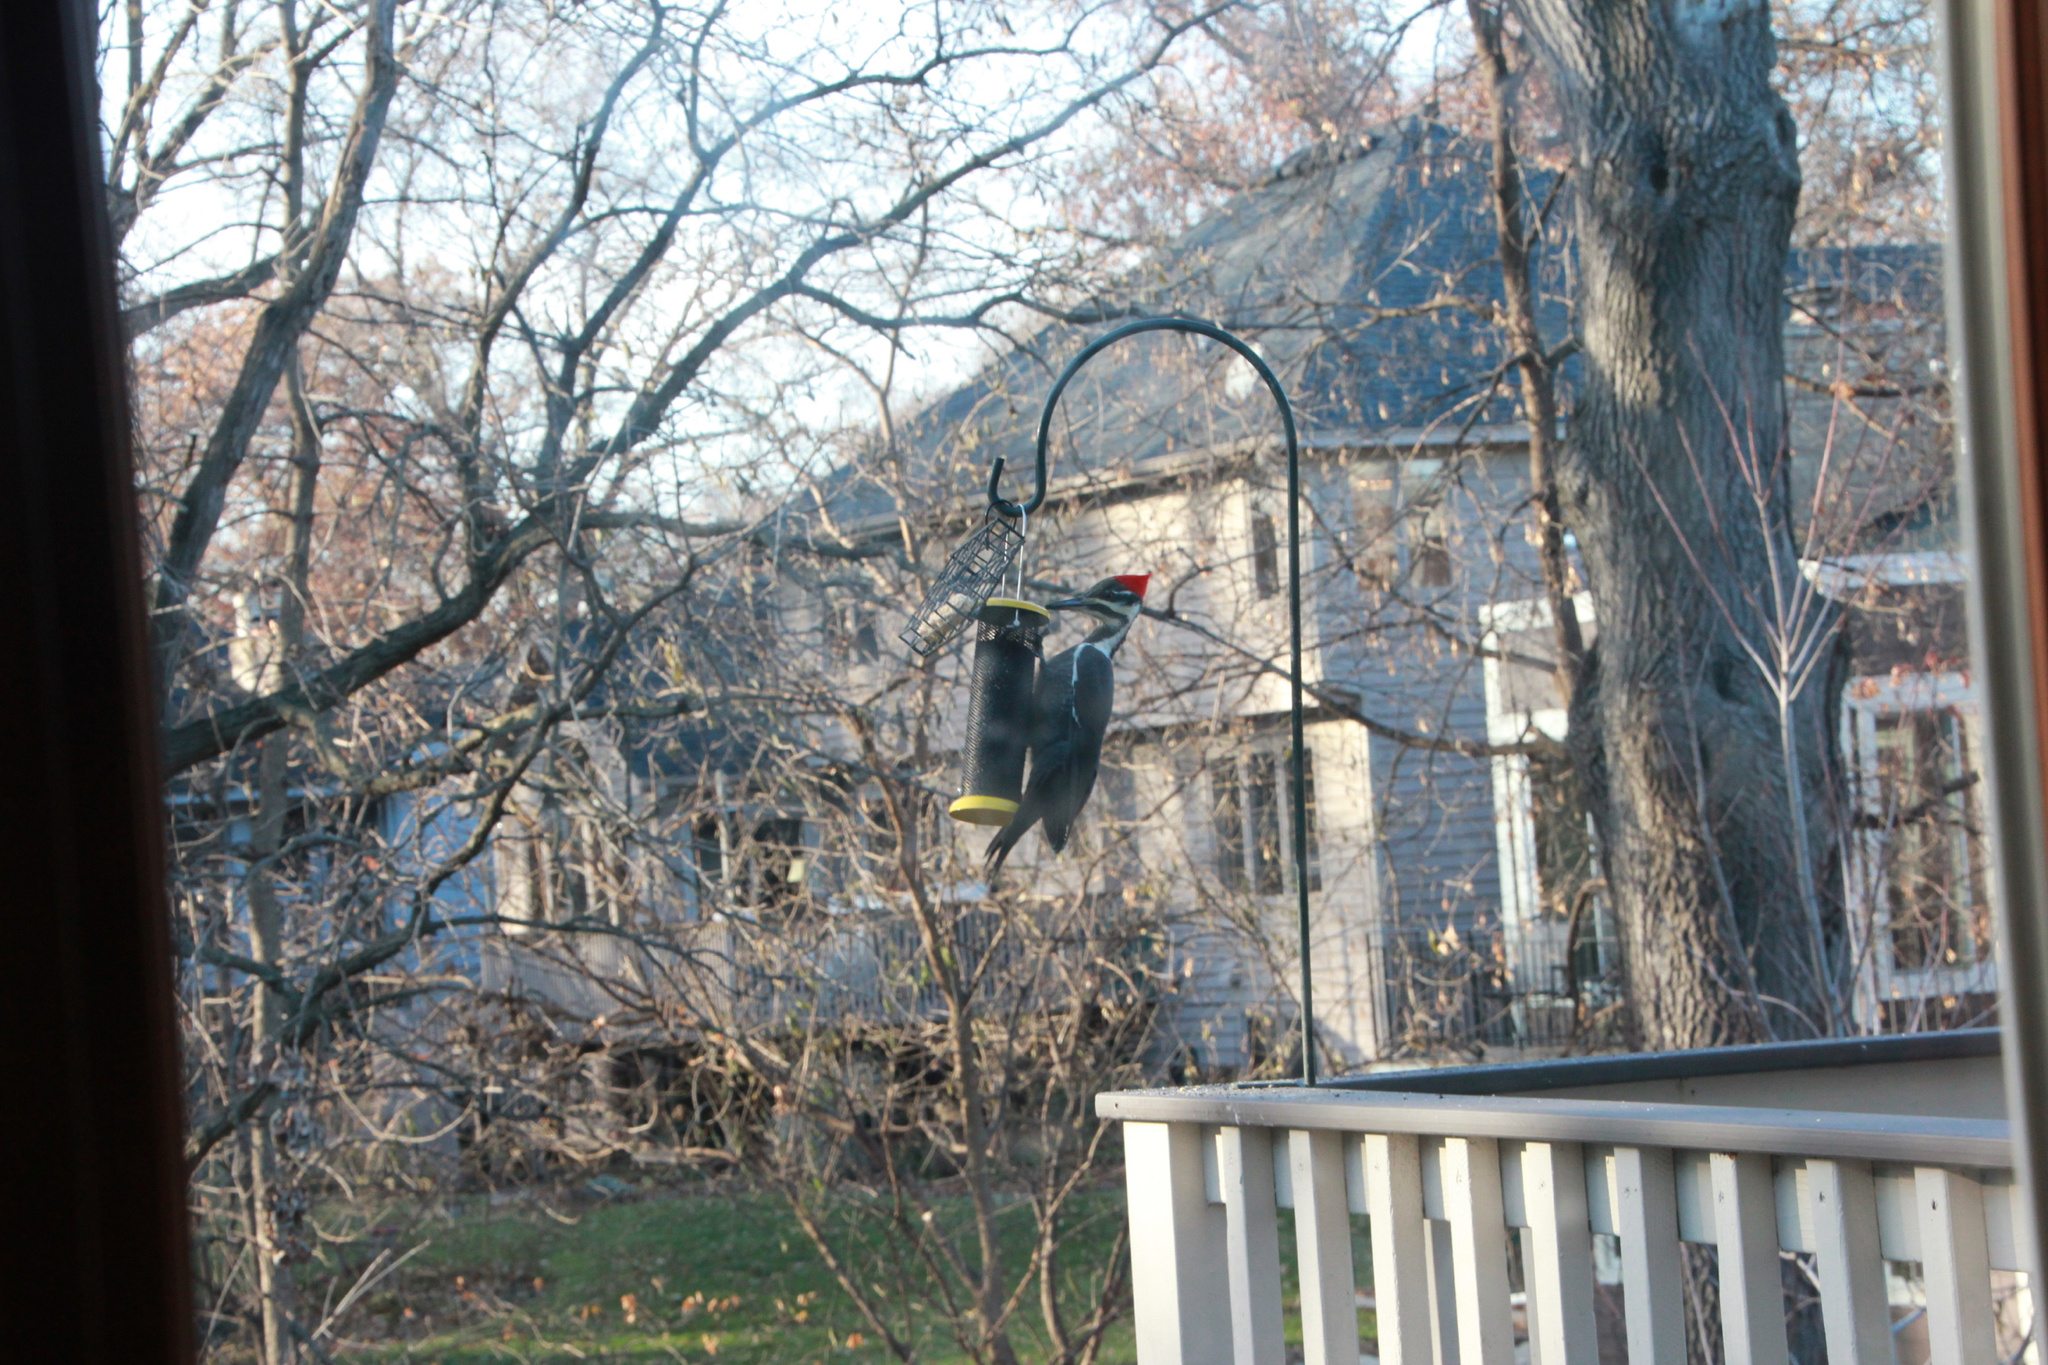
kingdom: Animalia
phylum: Chordata
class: Aves
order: Piciformes
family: Picidae
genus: Dryocopus
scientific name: Dryocopus pileatus
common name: Pileated woodpecker
